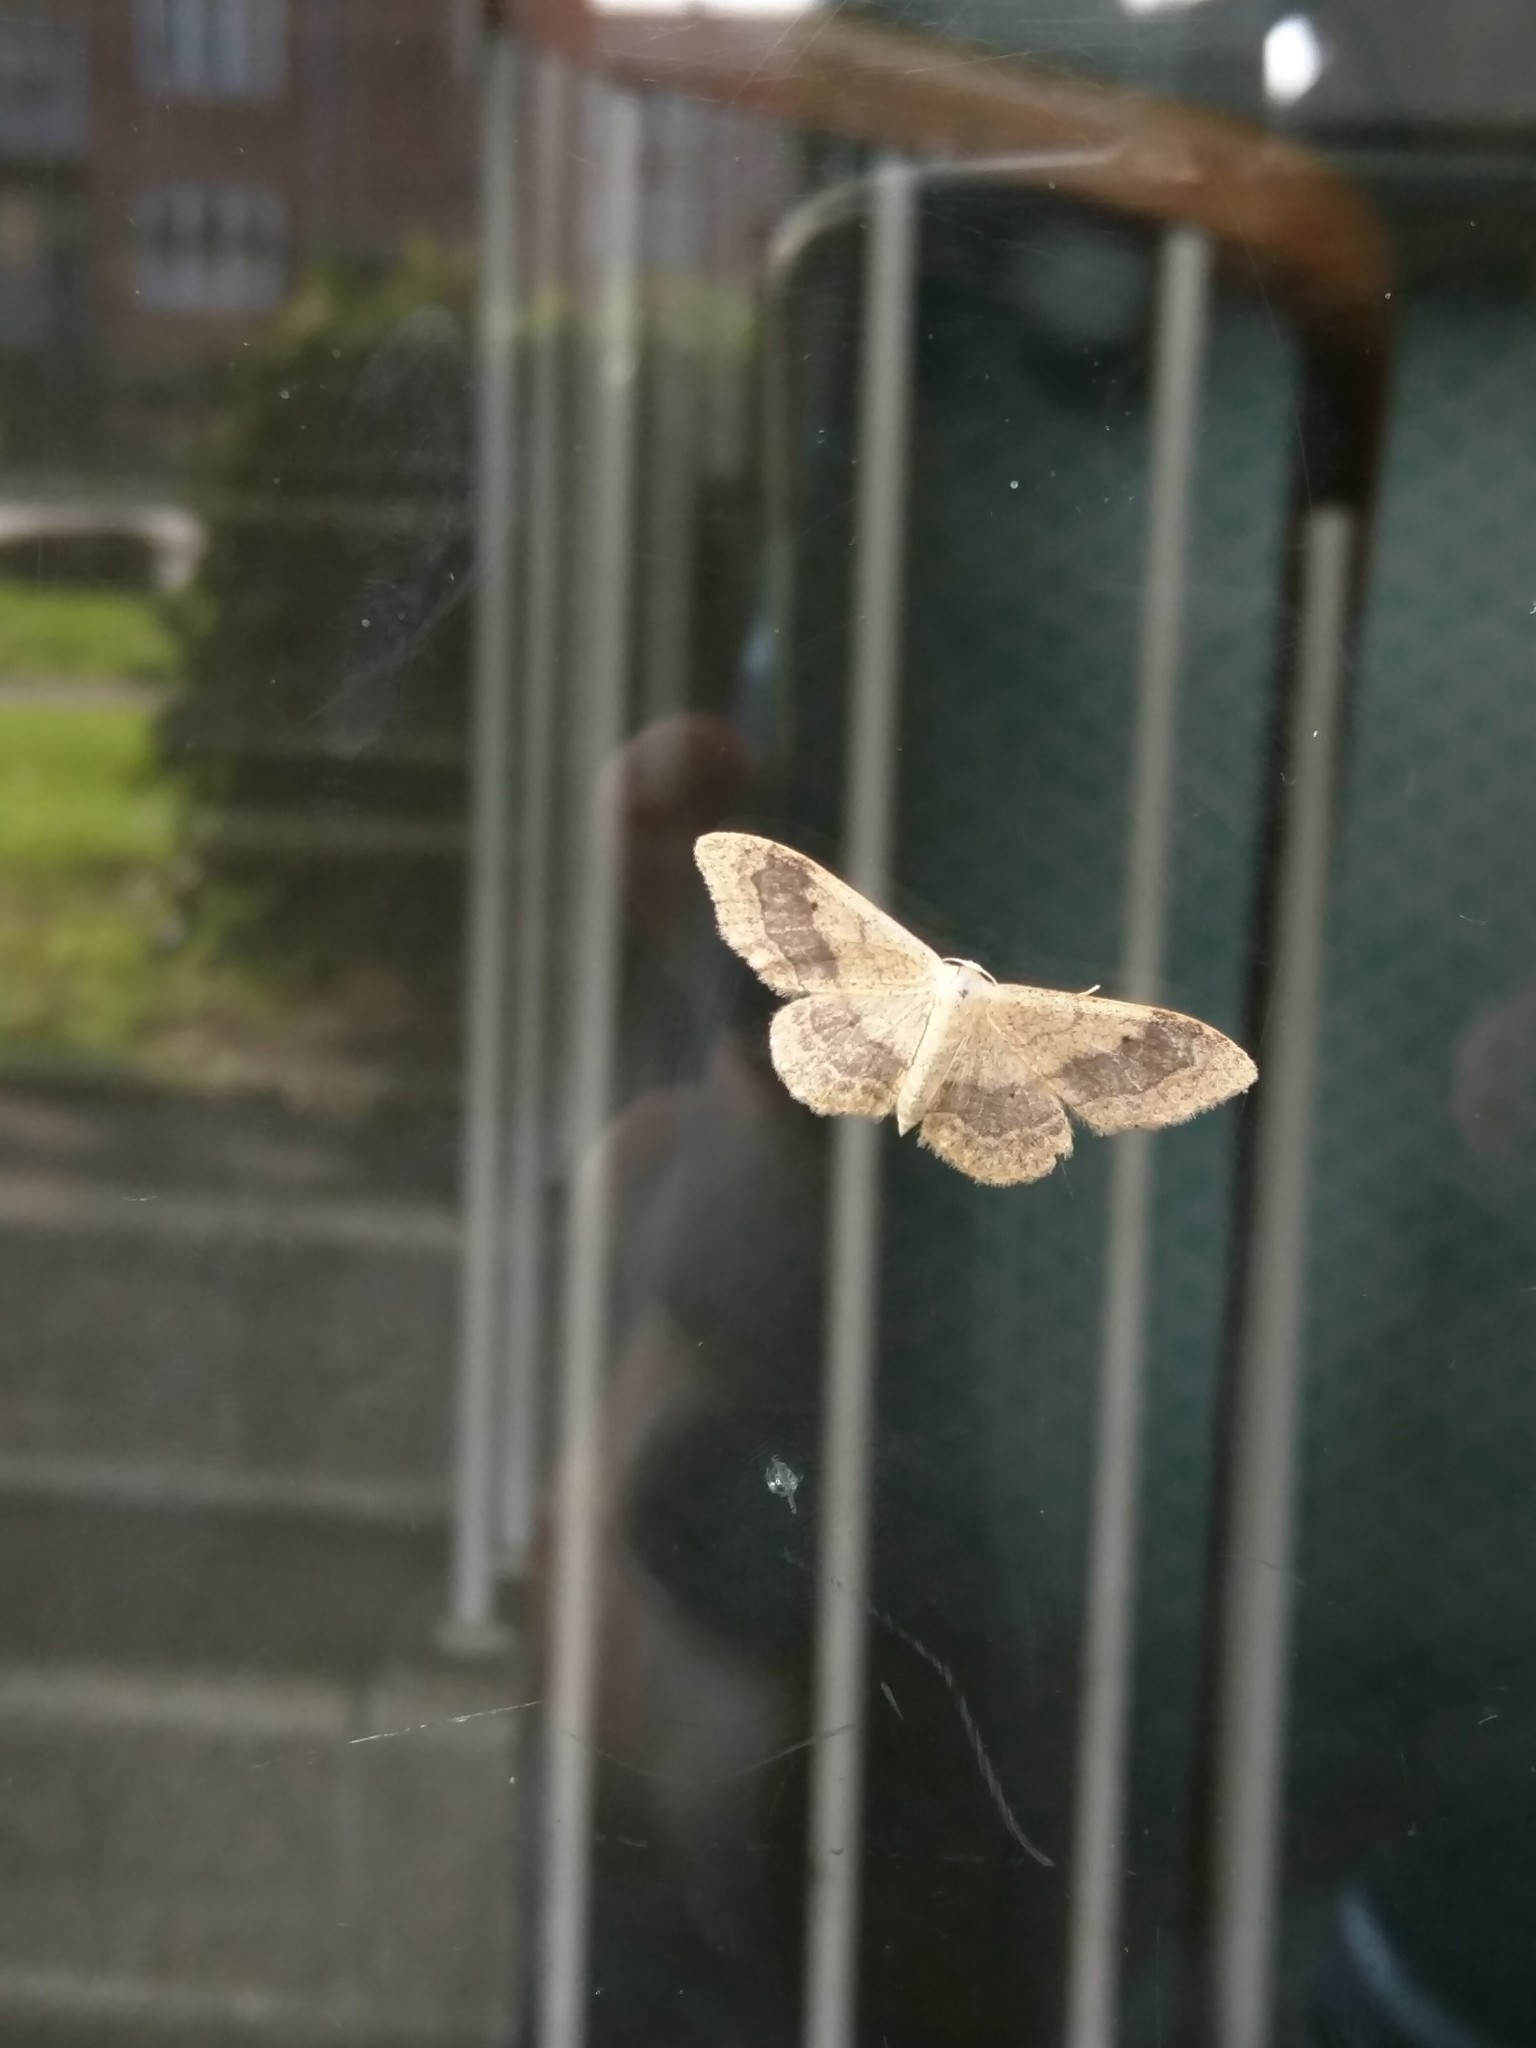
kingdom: Animalia
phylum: Arthropoda
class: Insecta
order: Lepidoptera
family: Geometridae
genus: Idaea
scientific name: Idaea aversata
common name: Riband wave
